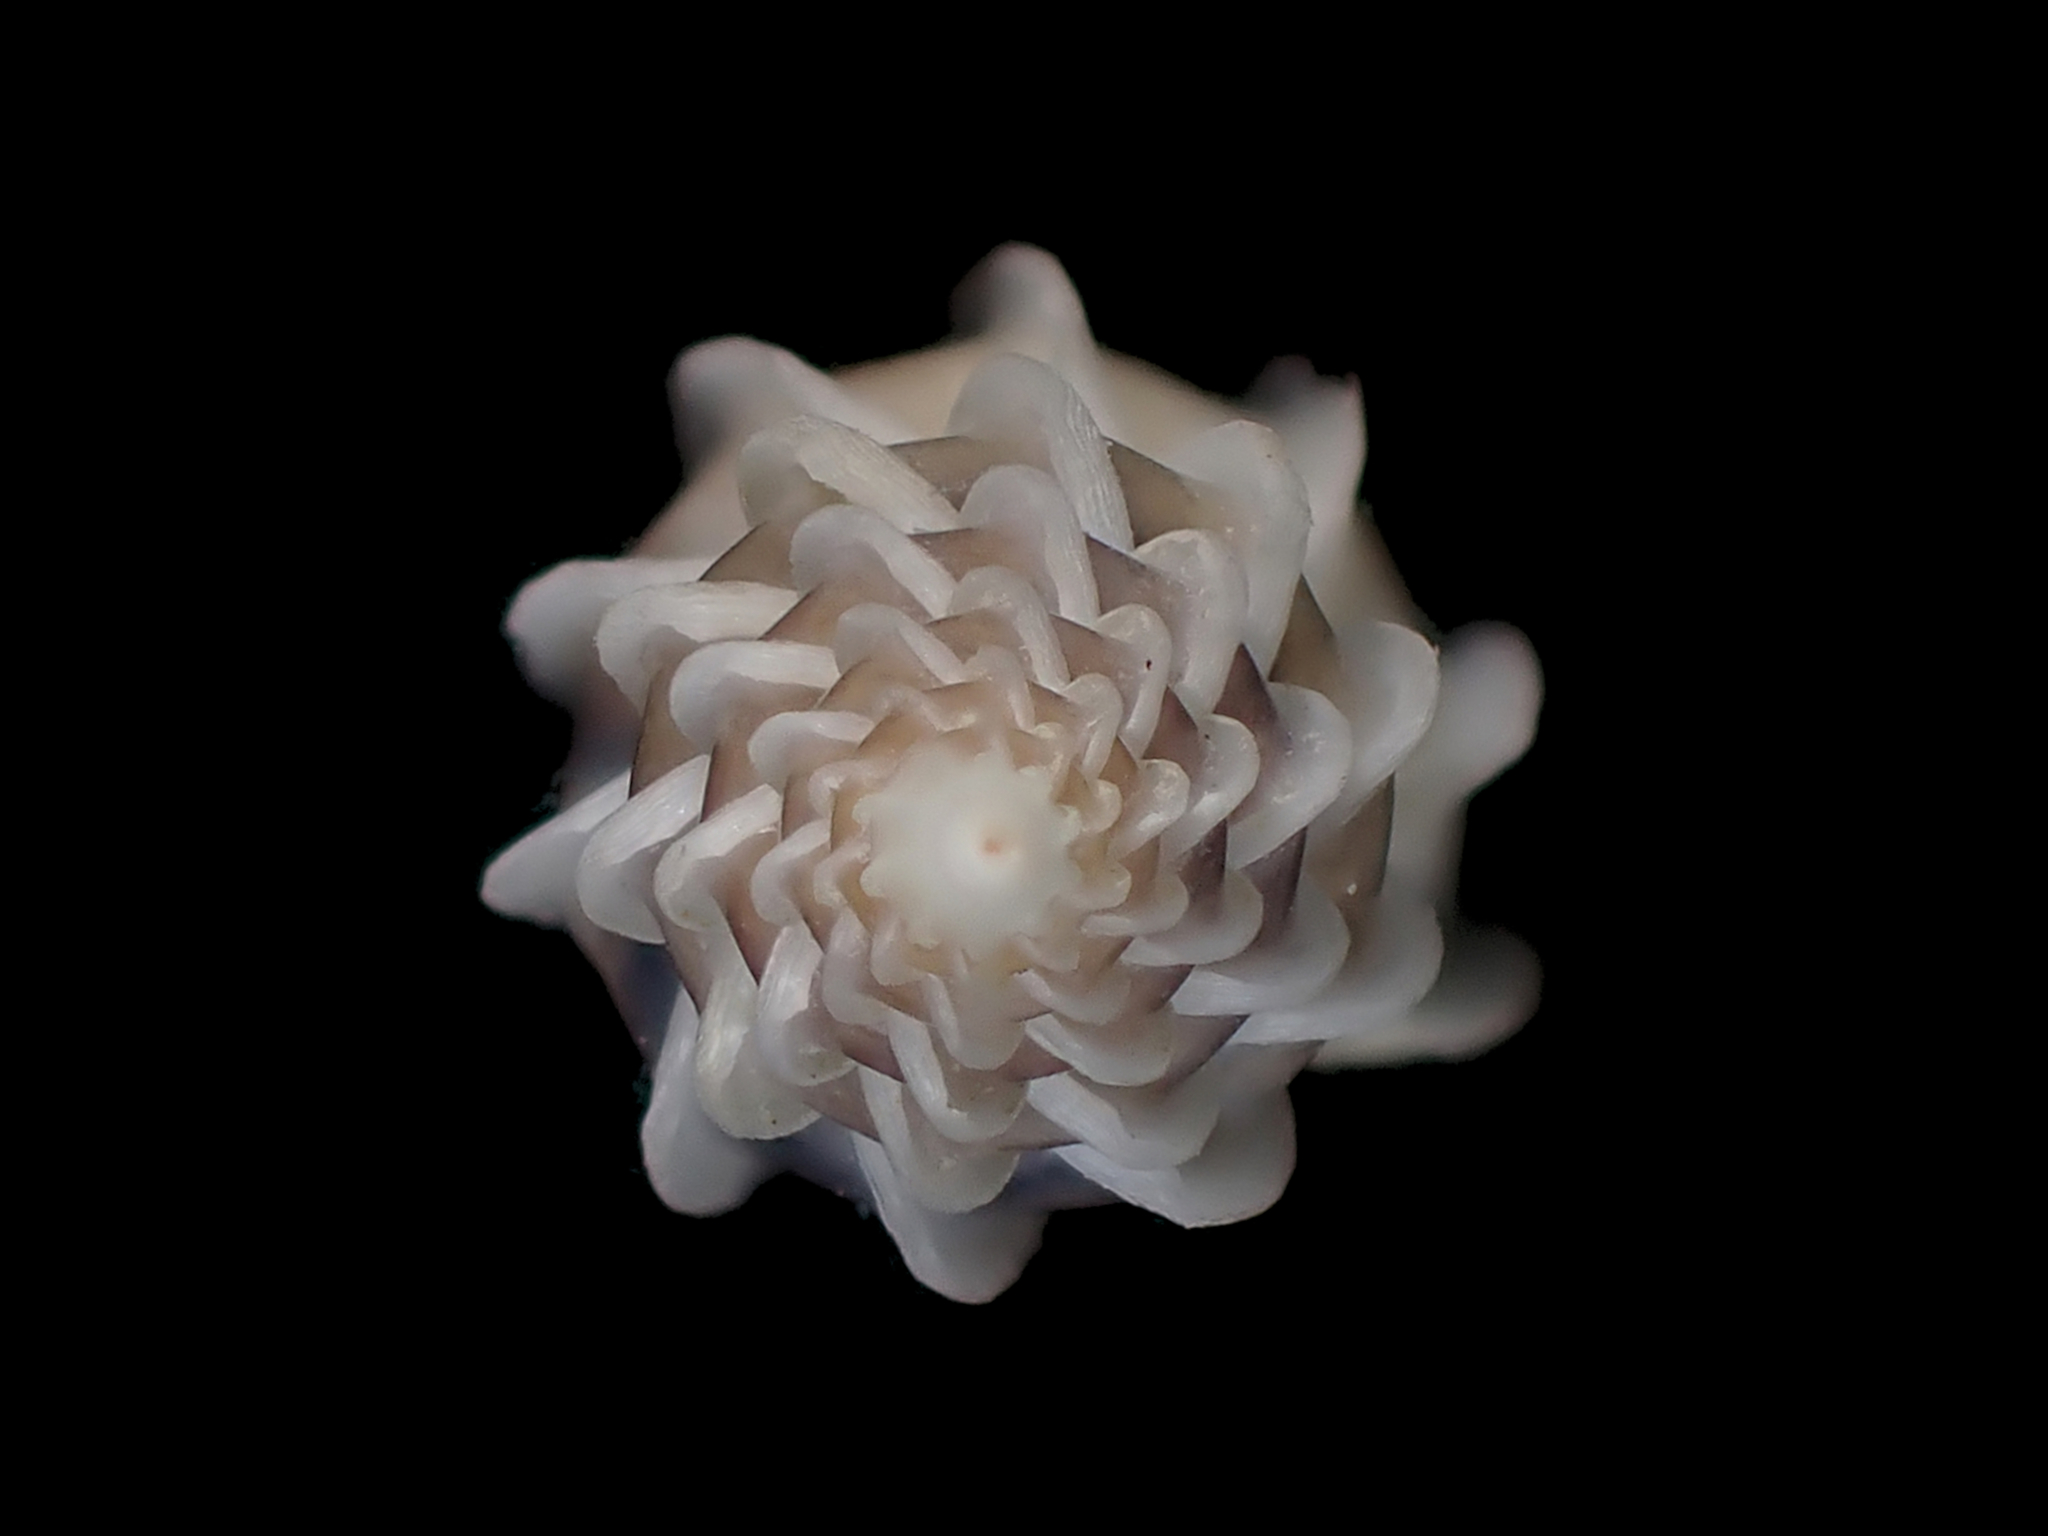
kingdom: Animalia
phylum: Mollusca
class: Gastropoda
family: Epitoniidae
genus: Epitonium
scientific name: Epitonium minorum
